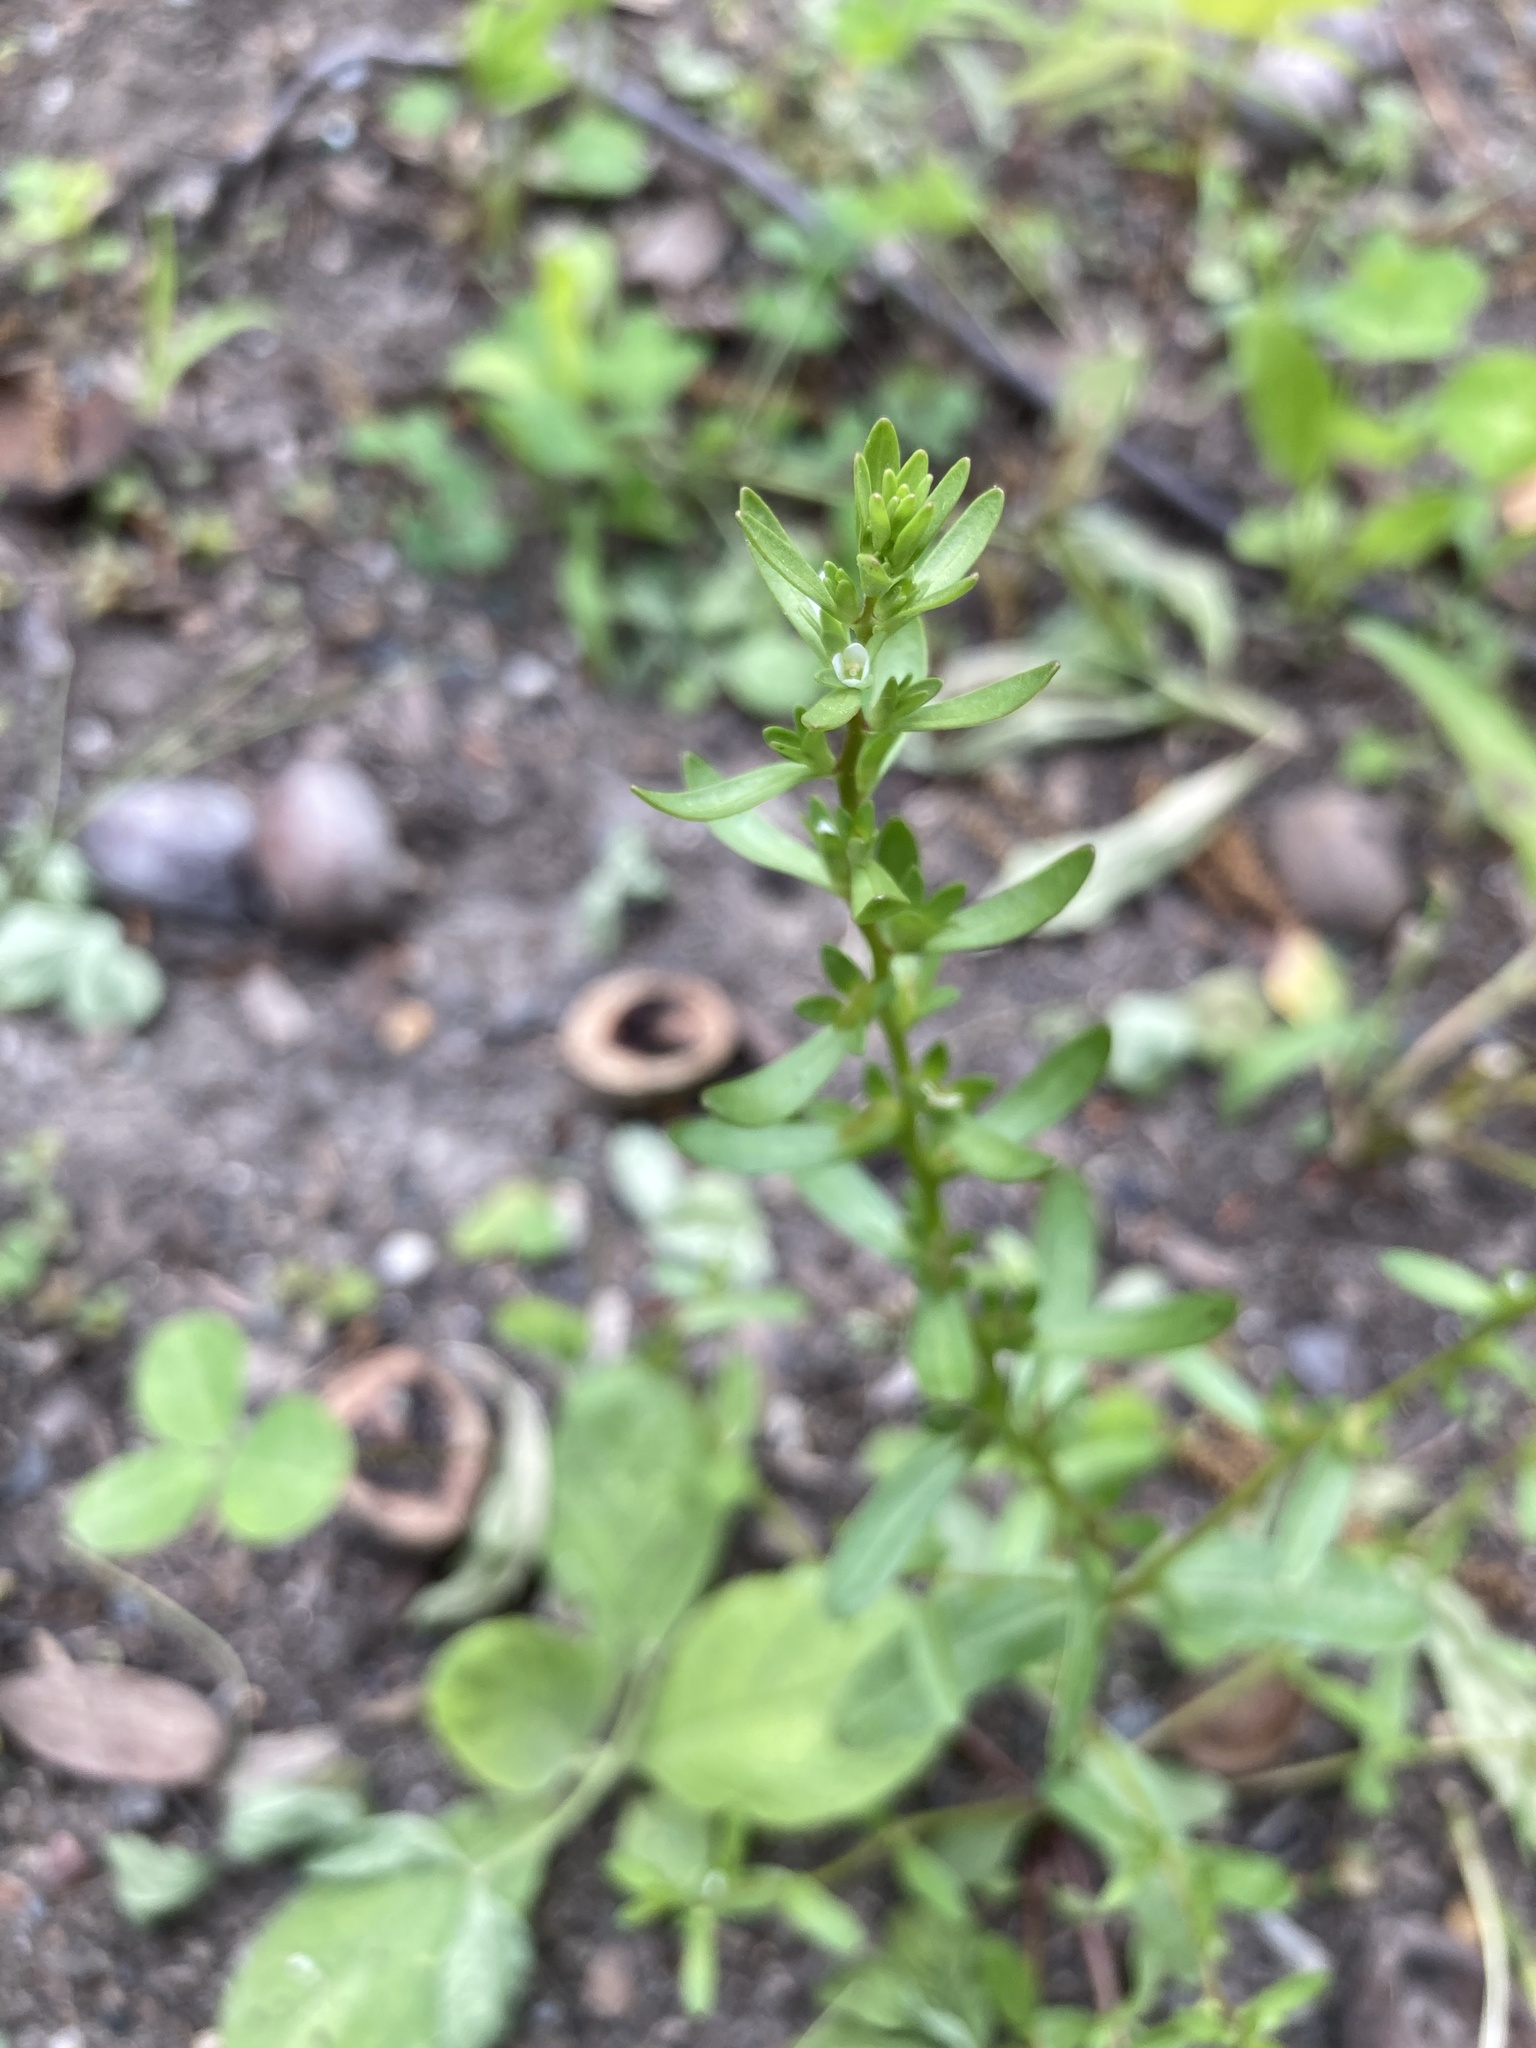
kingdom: Plantae
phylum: Tracheophyta
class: Magnoliopsida
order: Lamiales
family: Plantaginaceae
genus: Veronica
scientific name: Veronica peregrina
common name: Neckweed
